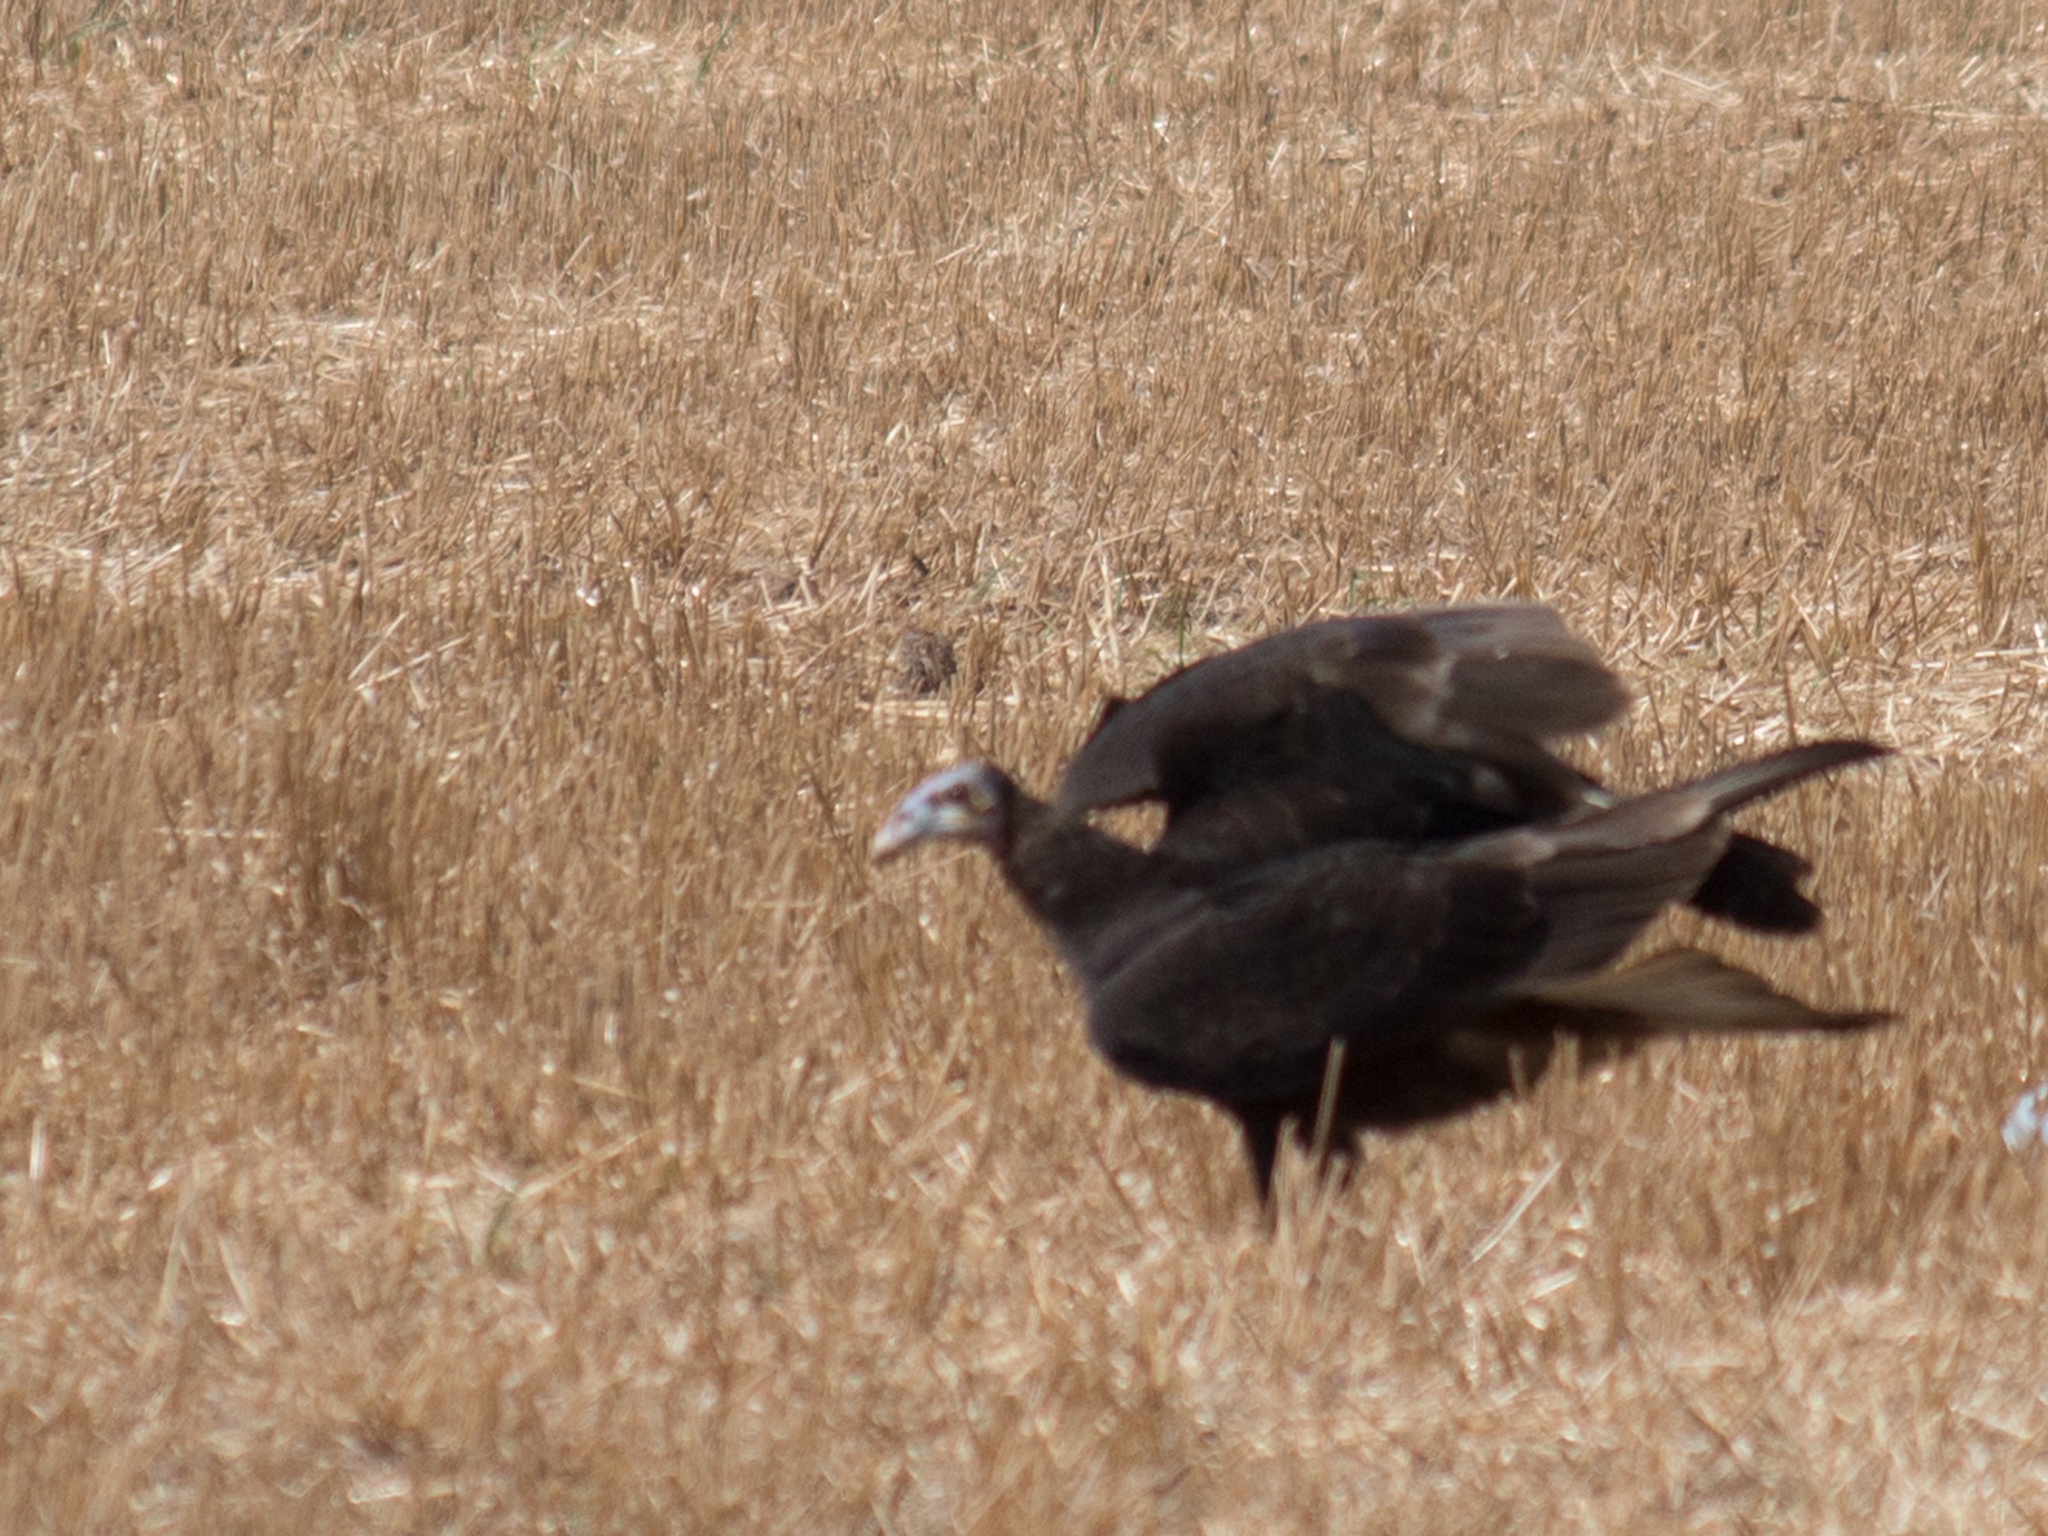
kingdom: Animalia
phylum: Chordata
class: Aves
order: Accipitriformes
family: Cathartidae
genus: Cathartes
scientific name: Cathartes burrovianus
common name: Lesser yellow-headed vulture
